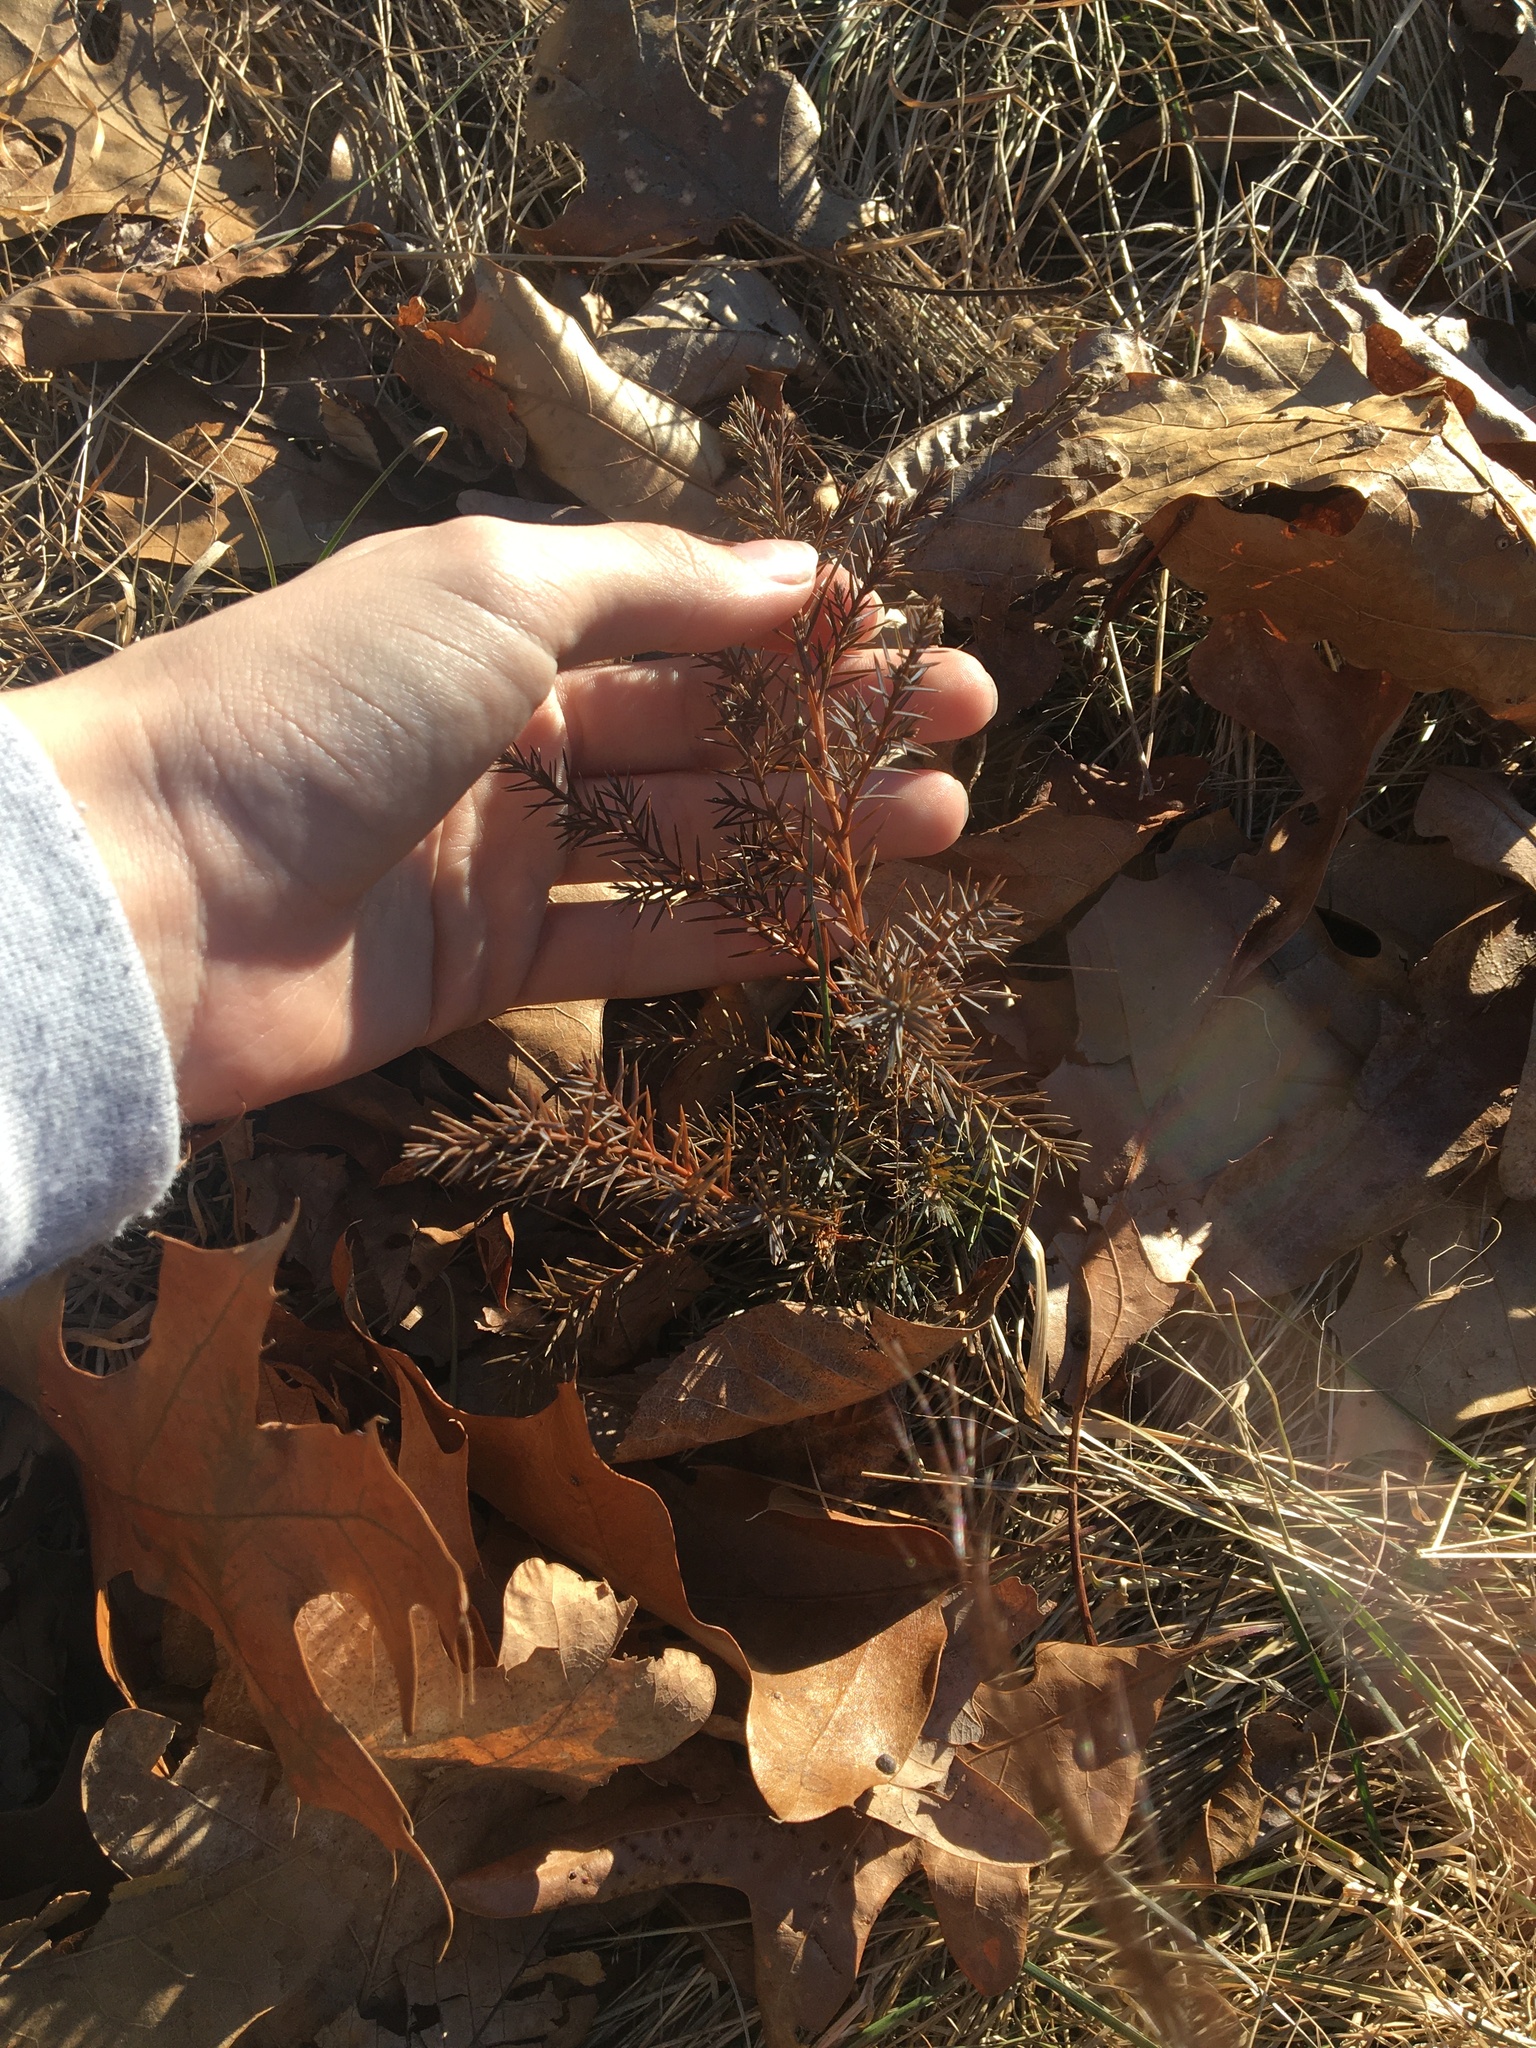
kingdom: Plantae
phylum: Tracheophyta
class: Pinopsida
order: Pinales
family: Cupressaceae
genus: Juniperus
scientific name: Juniperus virginiana
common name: Red juniper
